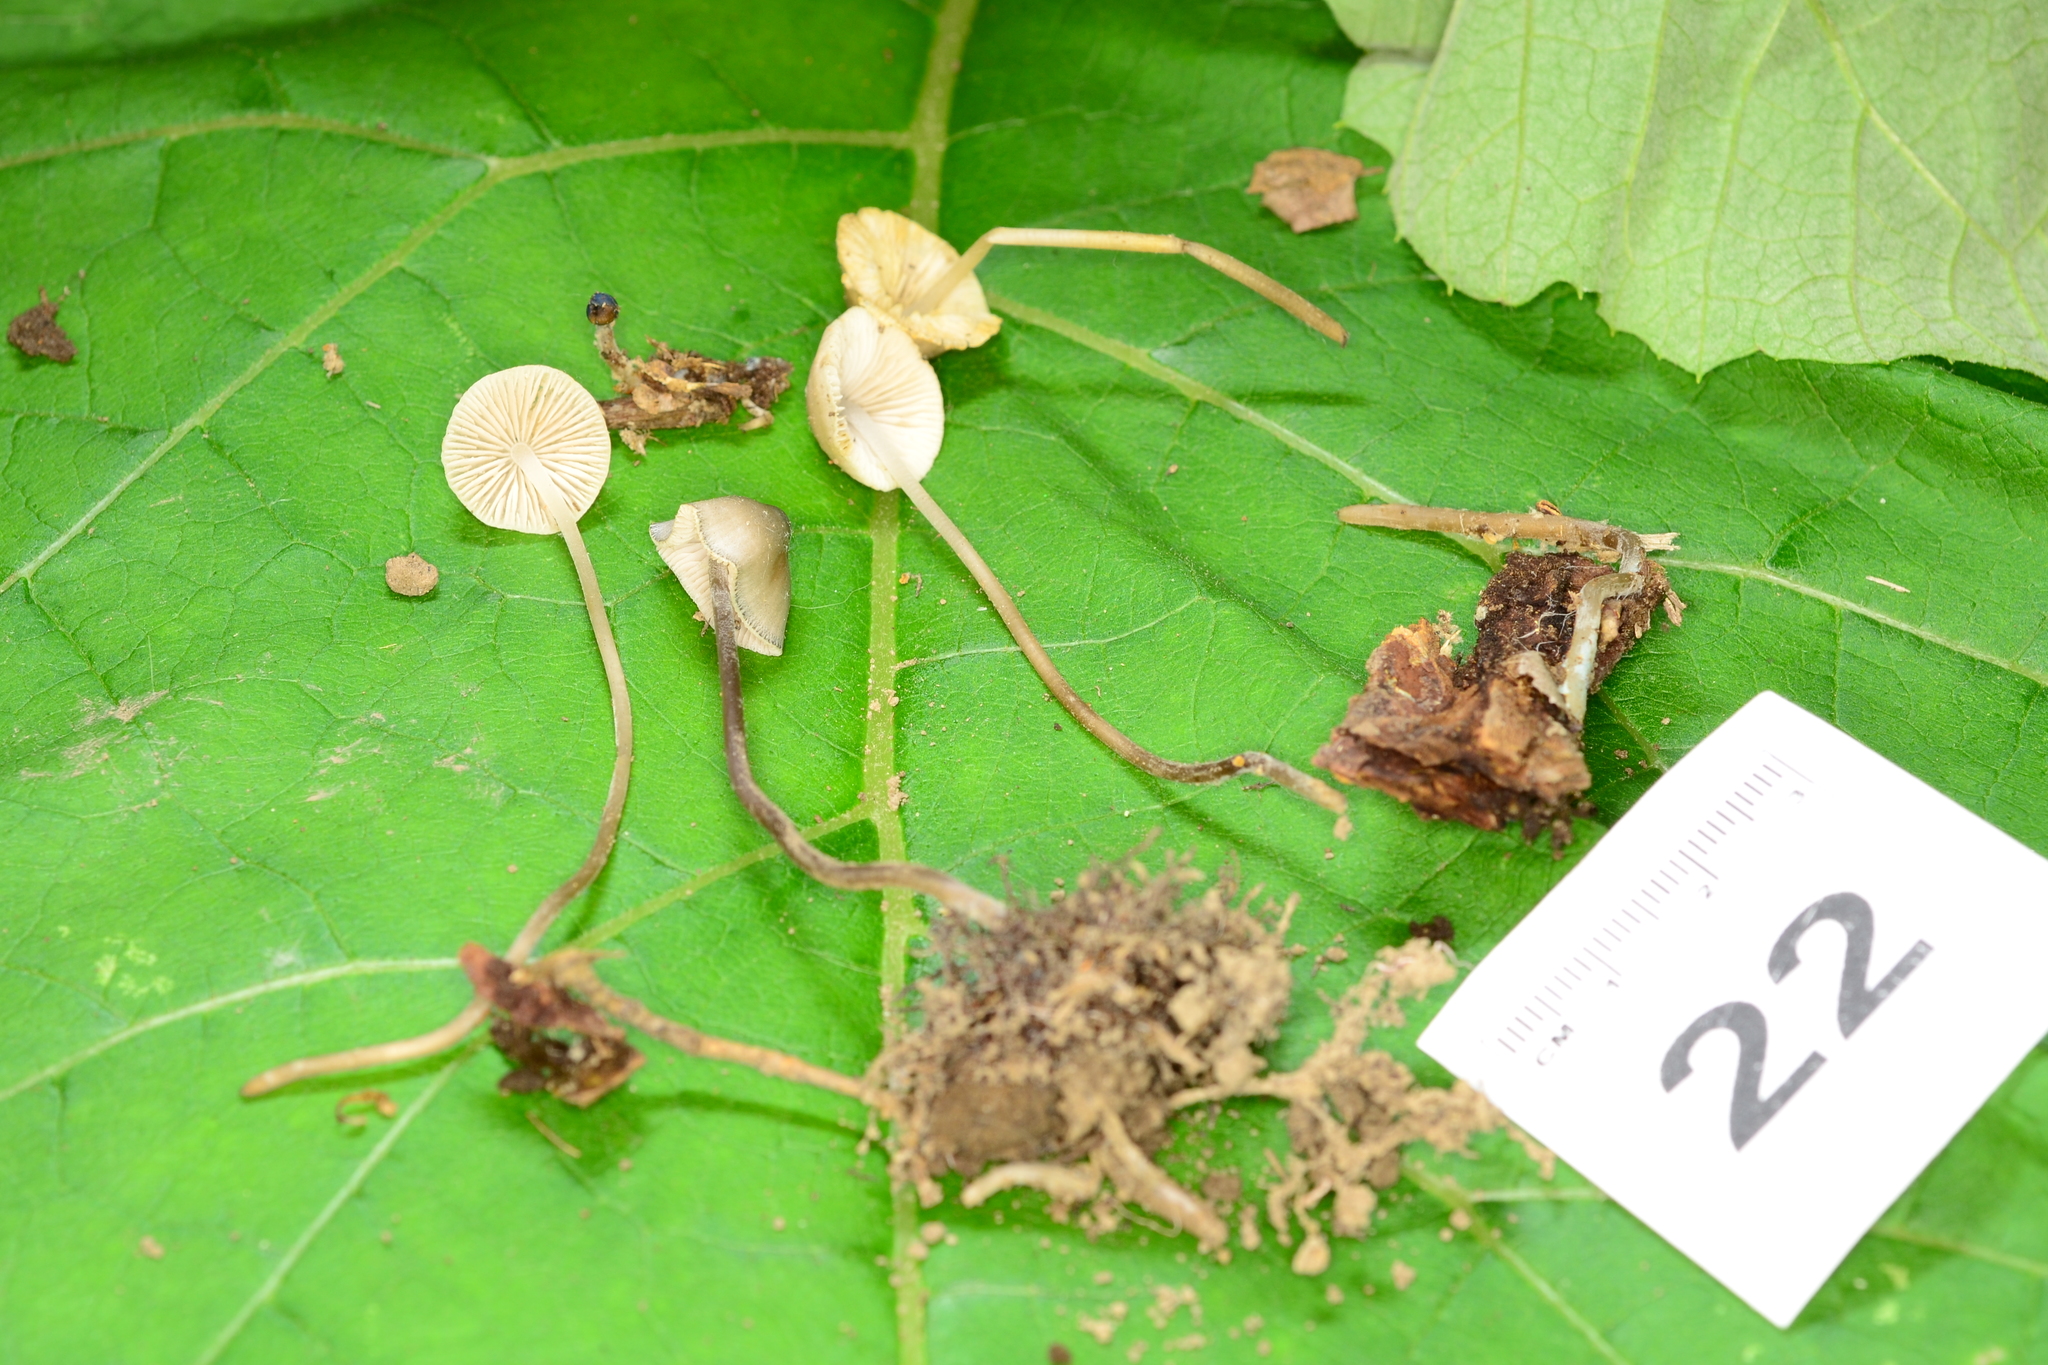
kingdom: Fungi
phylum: Basidiomycota
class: Agaricomycetes
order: Agaricales
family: Mycenaceae
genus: Mycena
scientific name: Mycena subcaerulea
